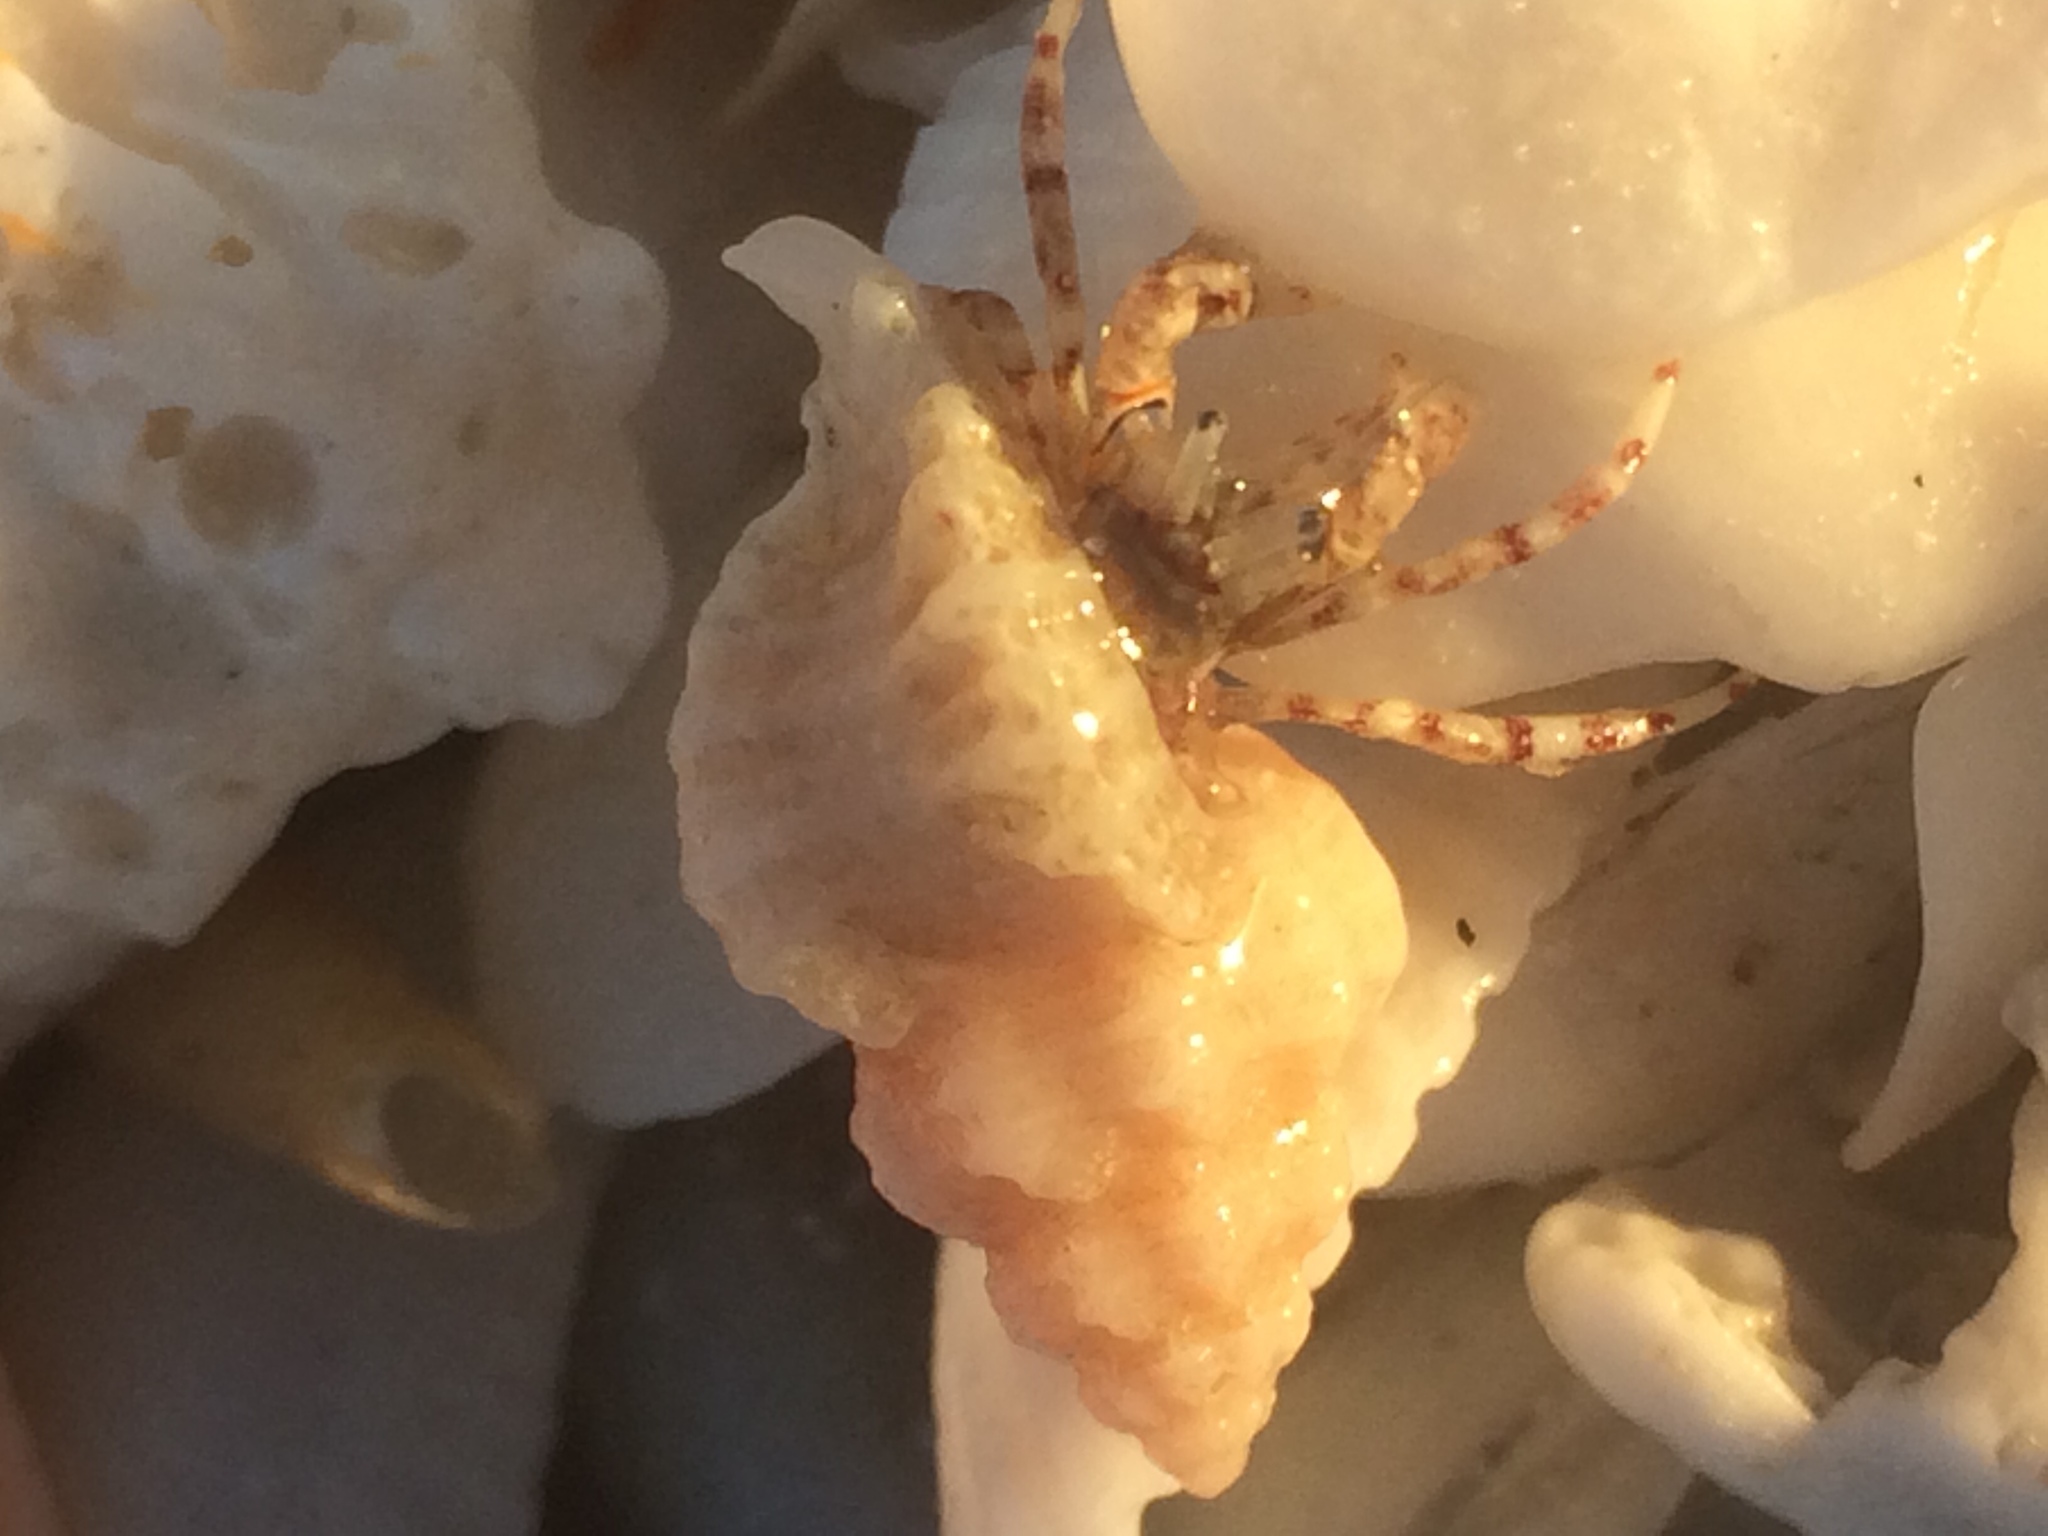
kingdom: Animalia
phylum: Arthropoda
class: Malacostraca
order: Decapoda
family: Diogenidae
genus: Areopaguristes
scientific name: Areopaguristes hummi
